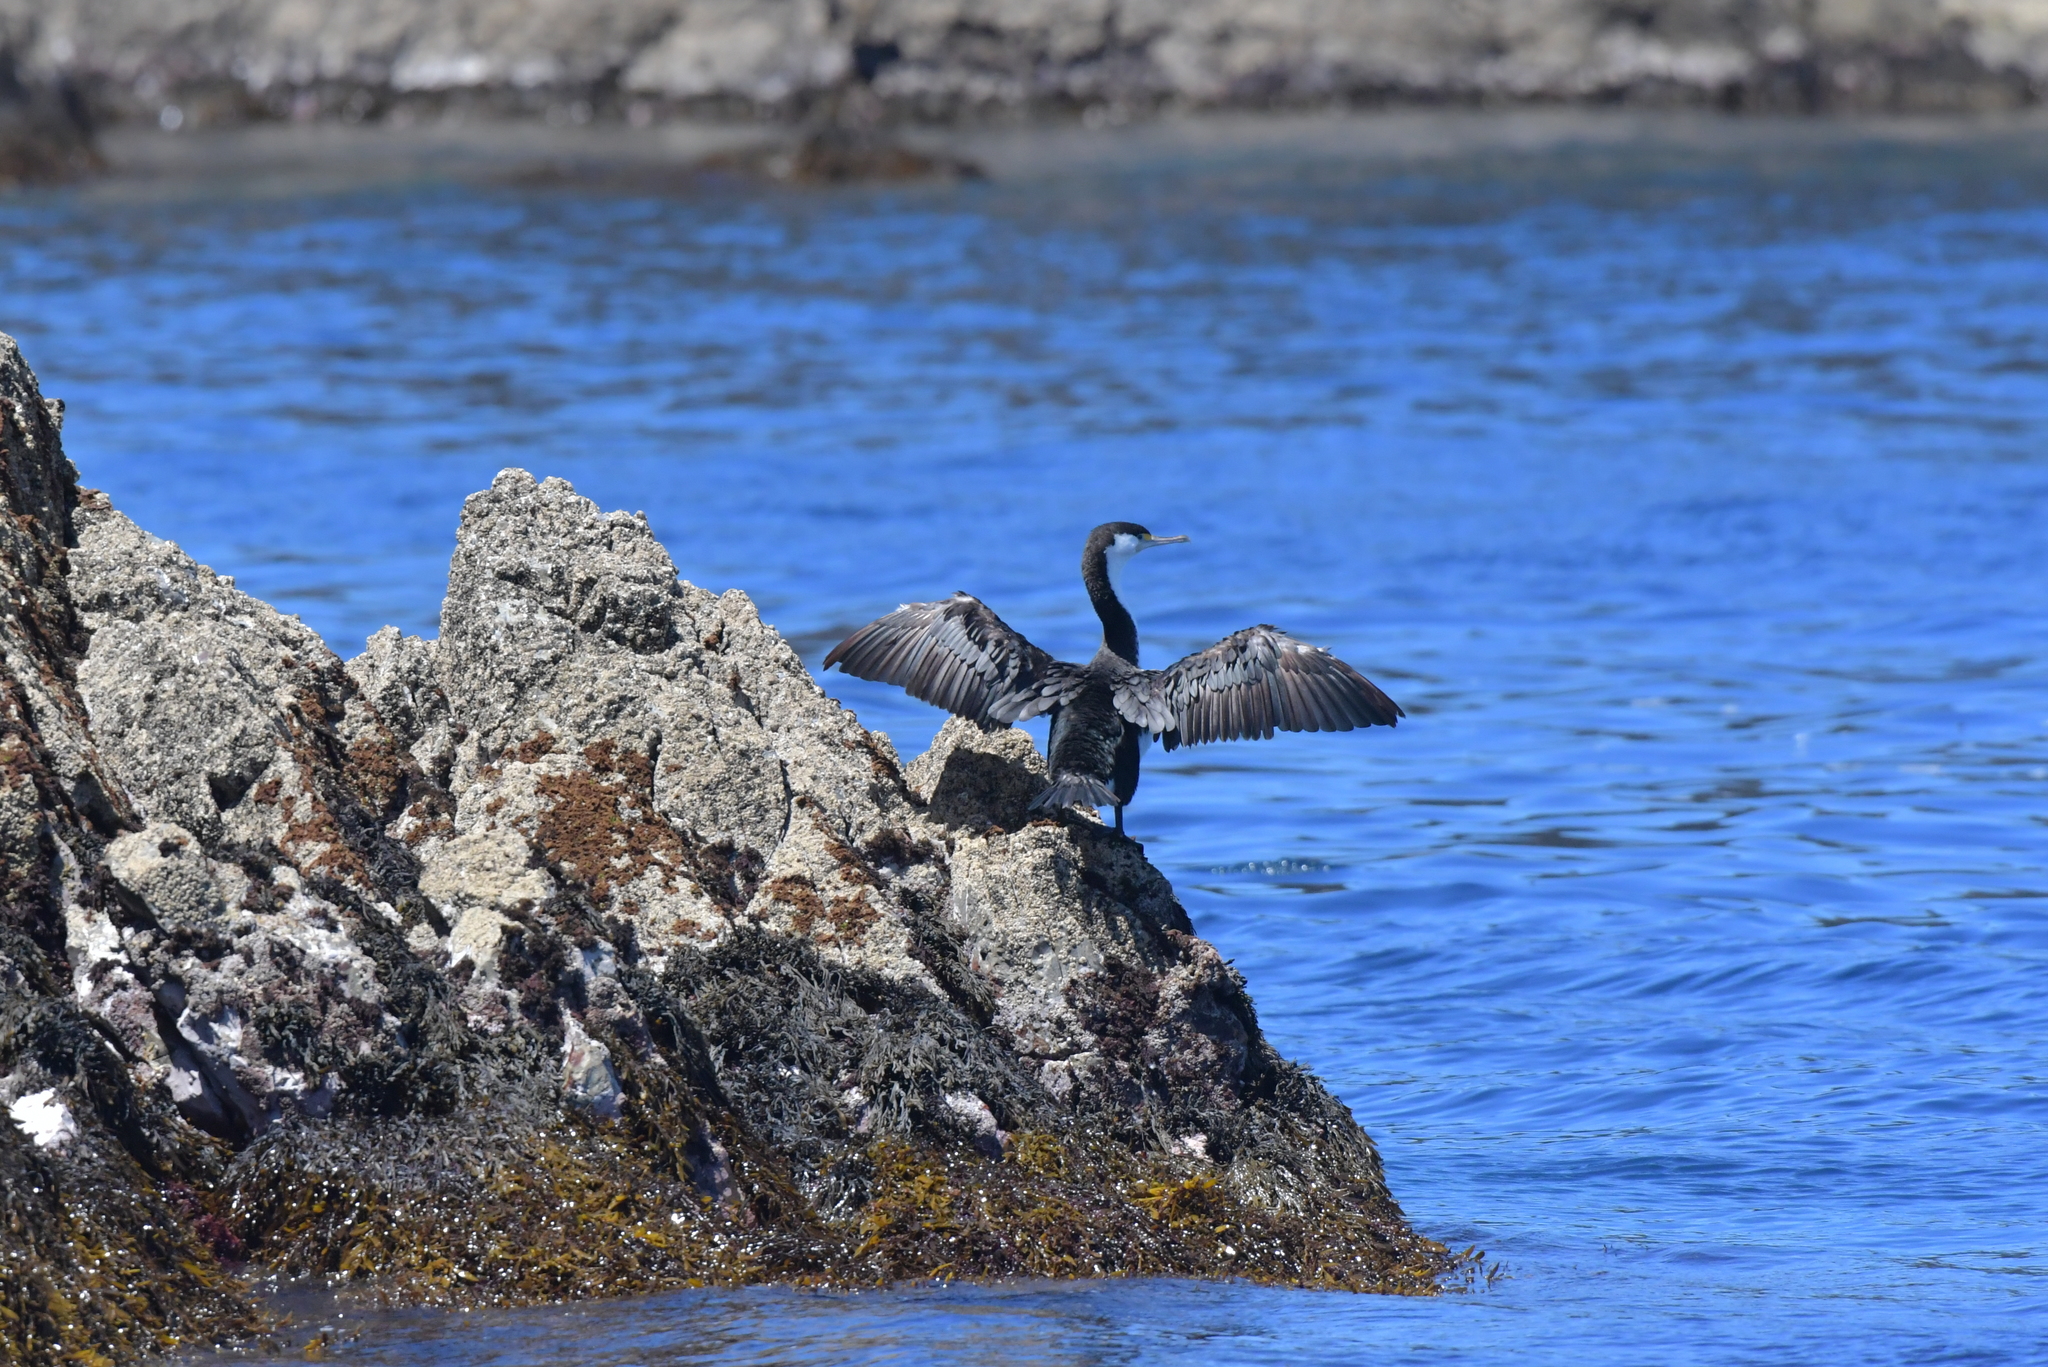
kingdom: Animalia
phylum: Chordata
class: Aves
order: Suliformes
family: Phalacrocoracidae
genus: Phalacrocorax
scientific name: Phalacrocorax varius
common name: Pied cormorant
